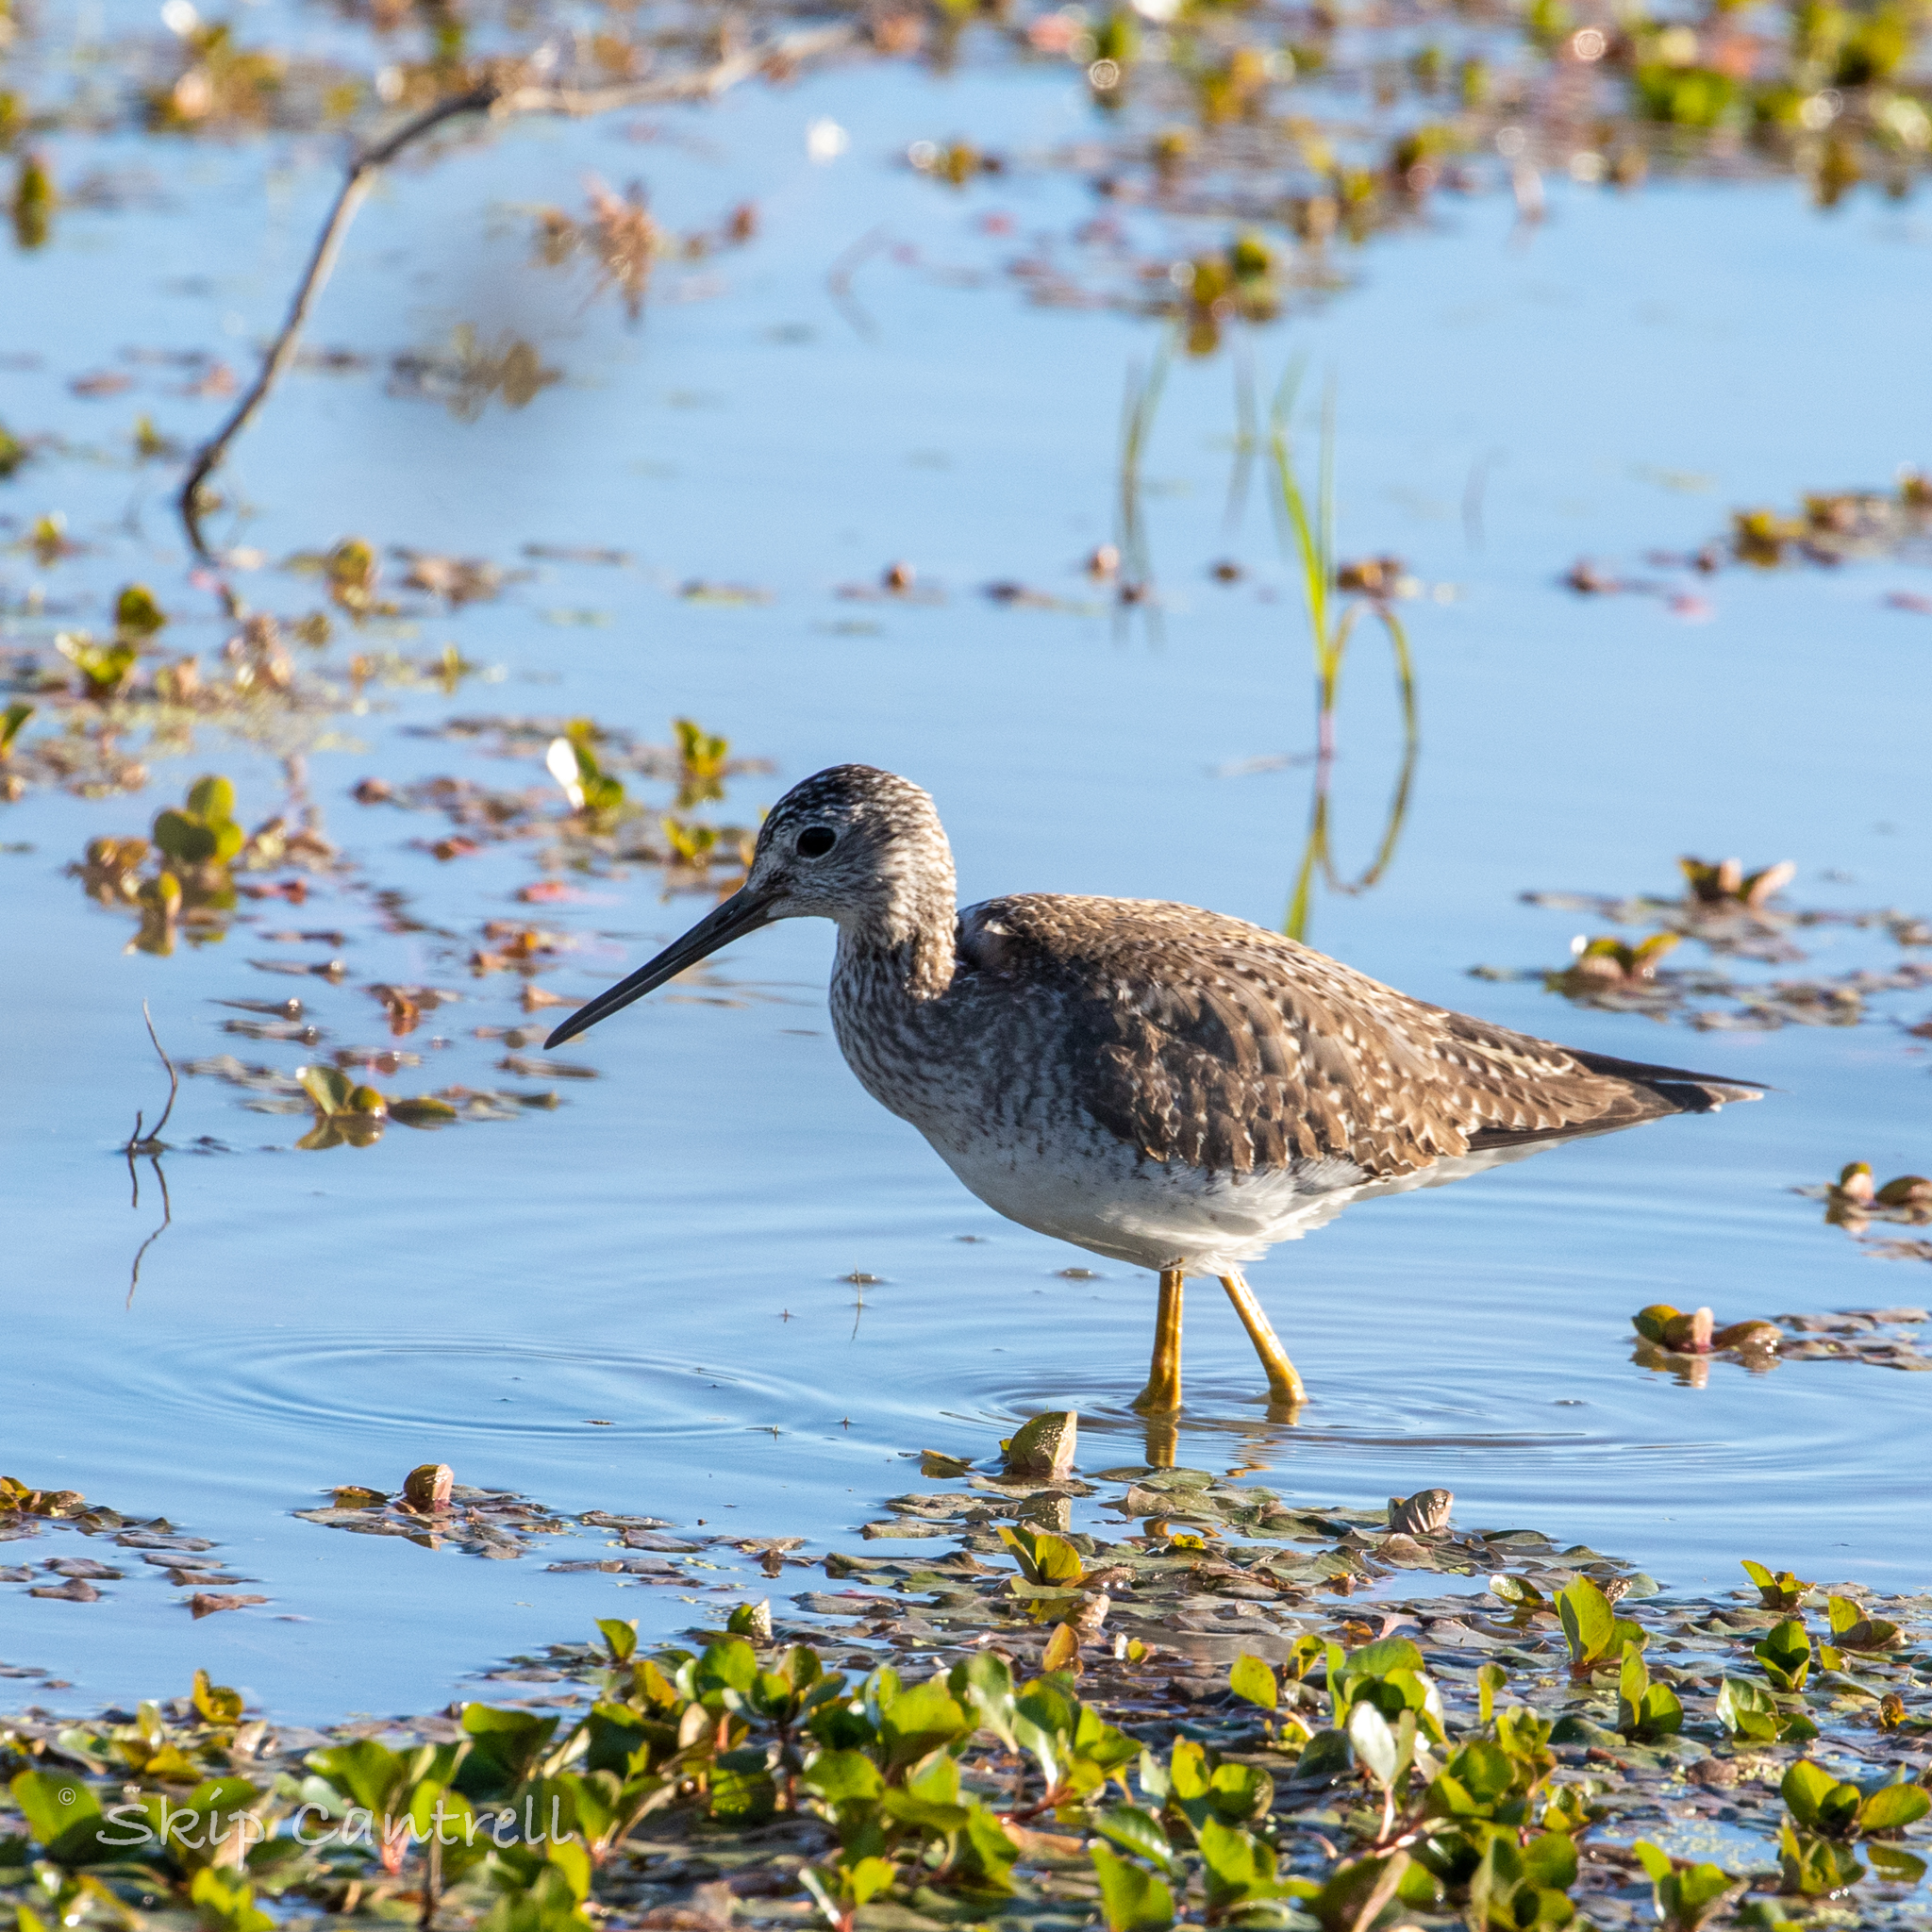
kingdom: Animalia
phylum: Chordata
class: Aves
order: Charadriiformes
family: Scolopacidae
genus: Tringa
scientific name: Tringa melanoleuca
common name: Greater yellowlegs
